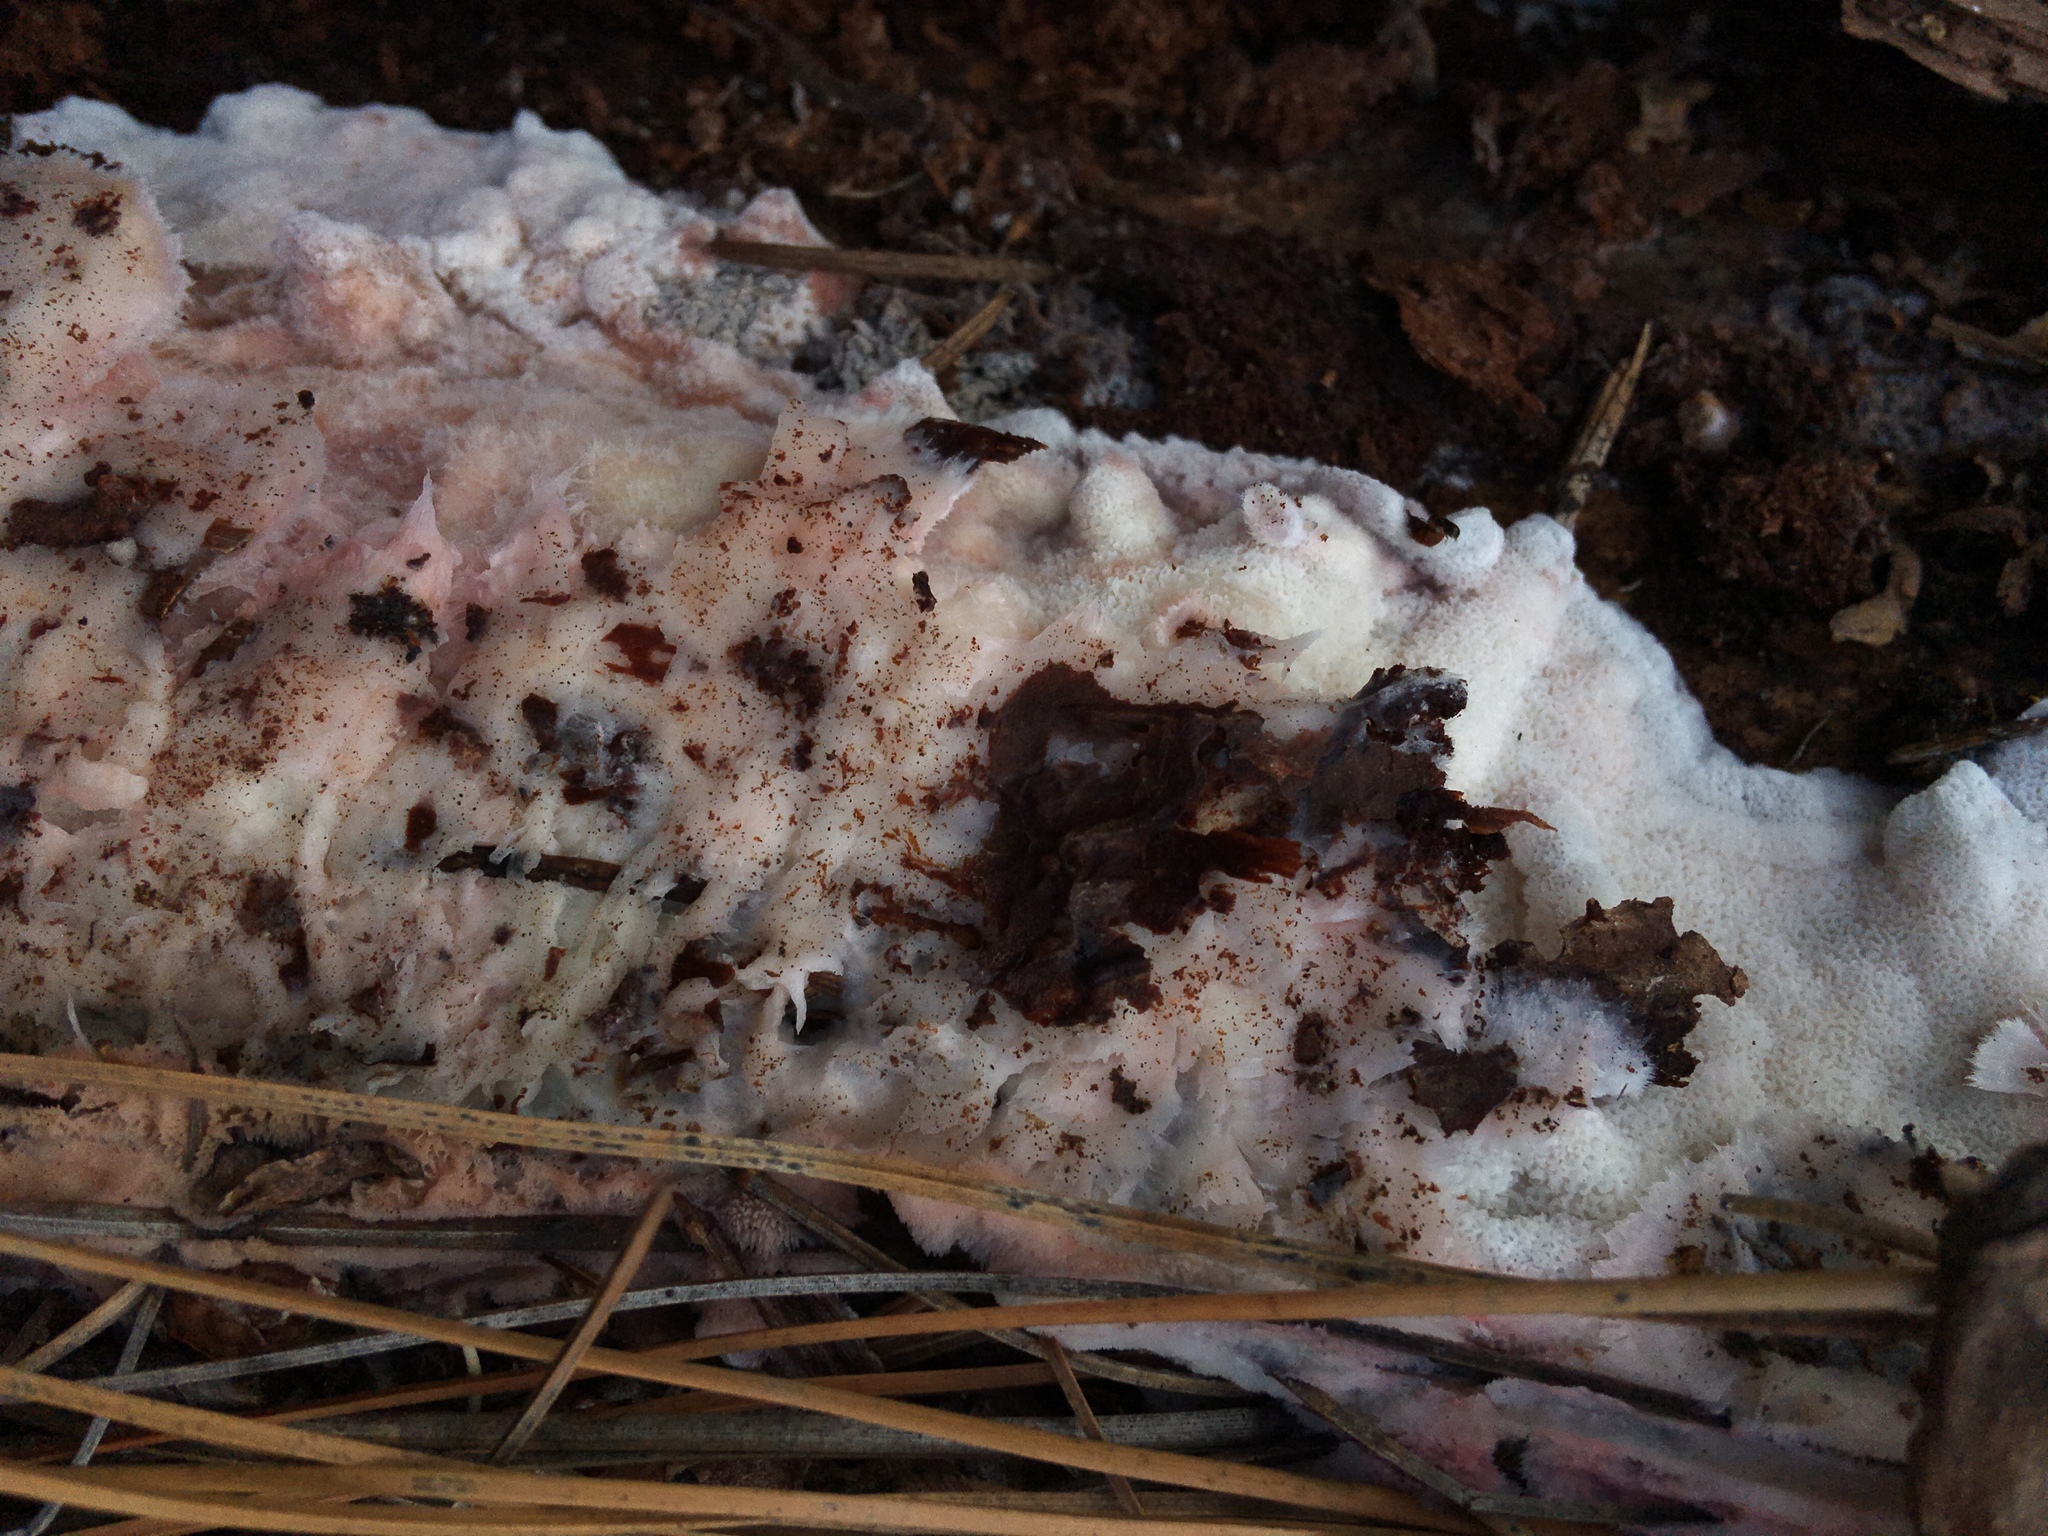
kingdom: Fungi
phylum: Basidiomycota
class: Agaricomycetes
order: Polyporales
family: Irpicaceae
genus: Leptoporus
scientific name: Leptoporus mollis
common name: Soft bracket
